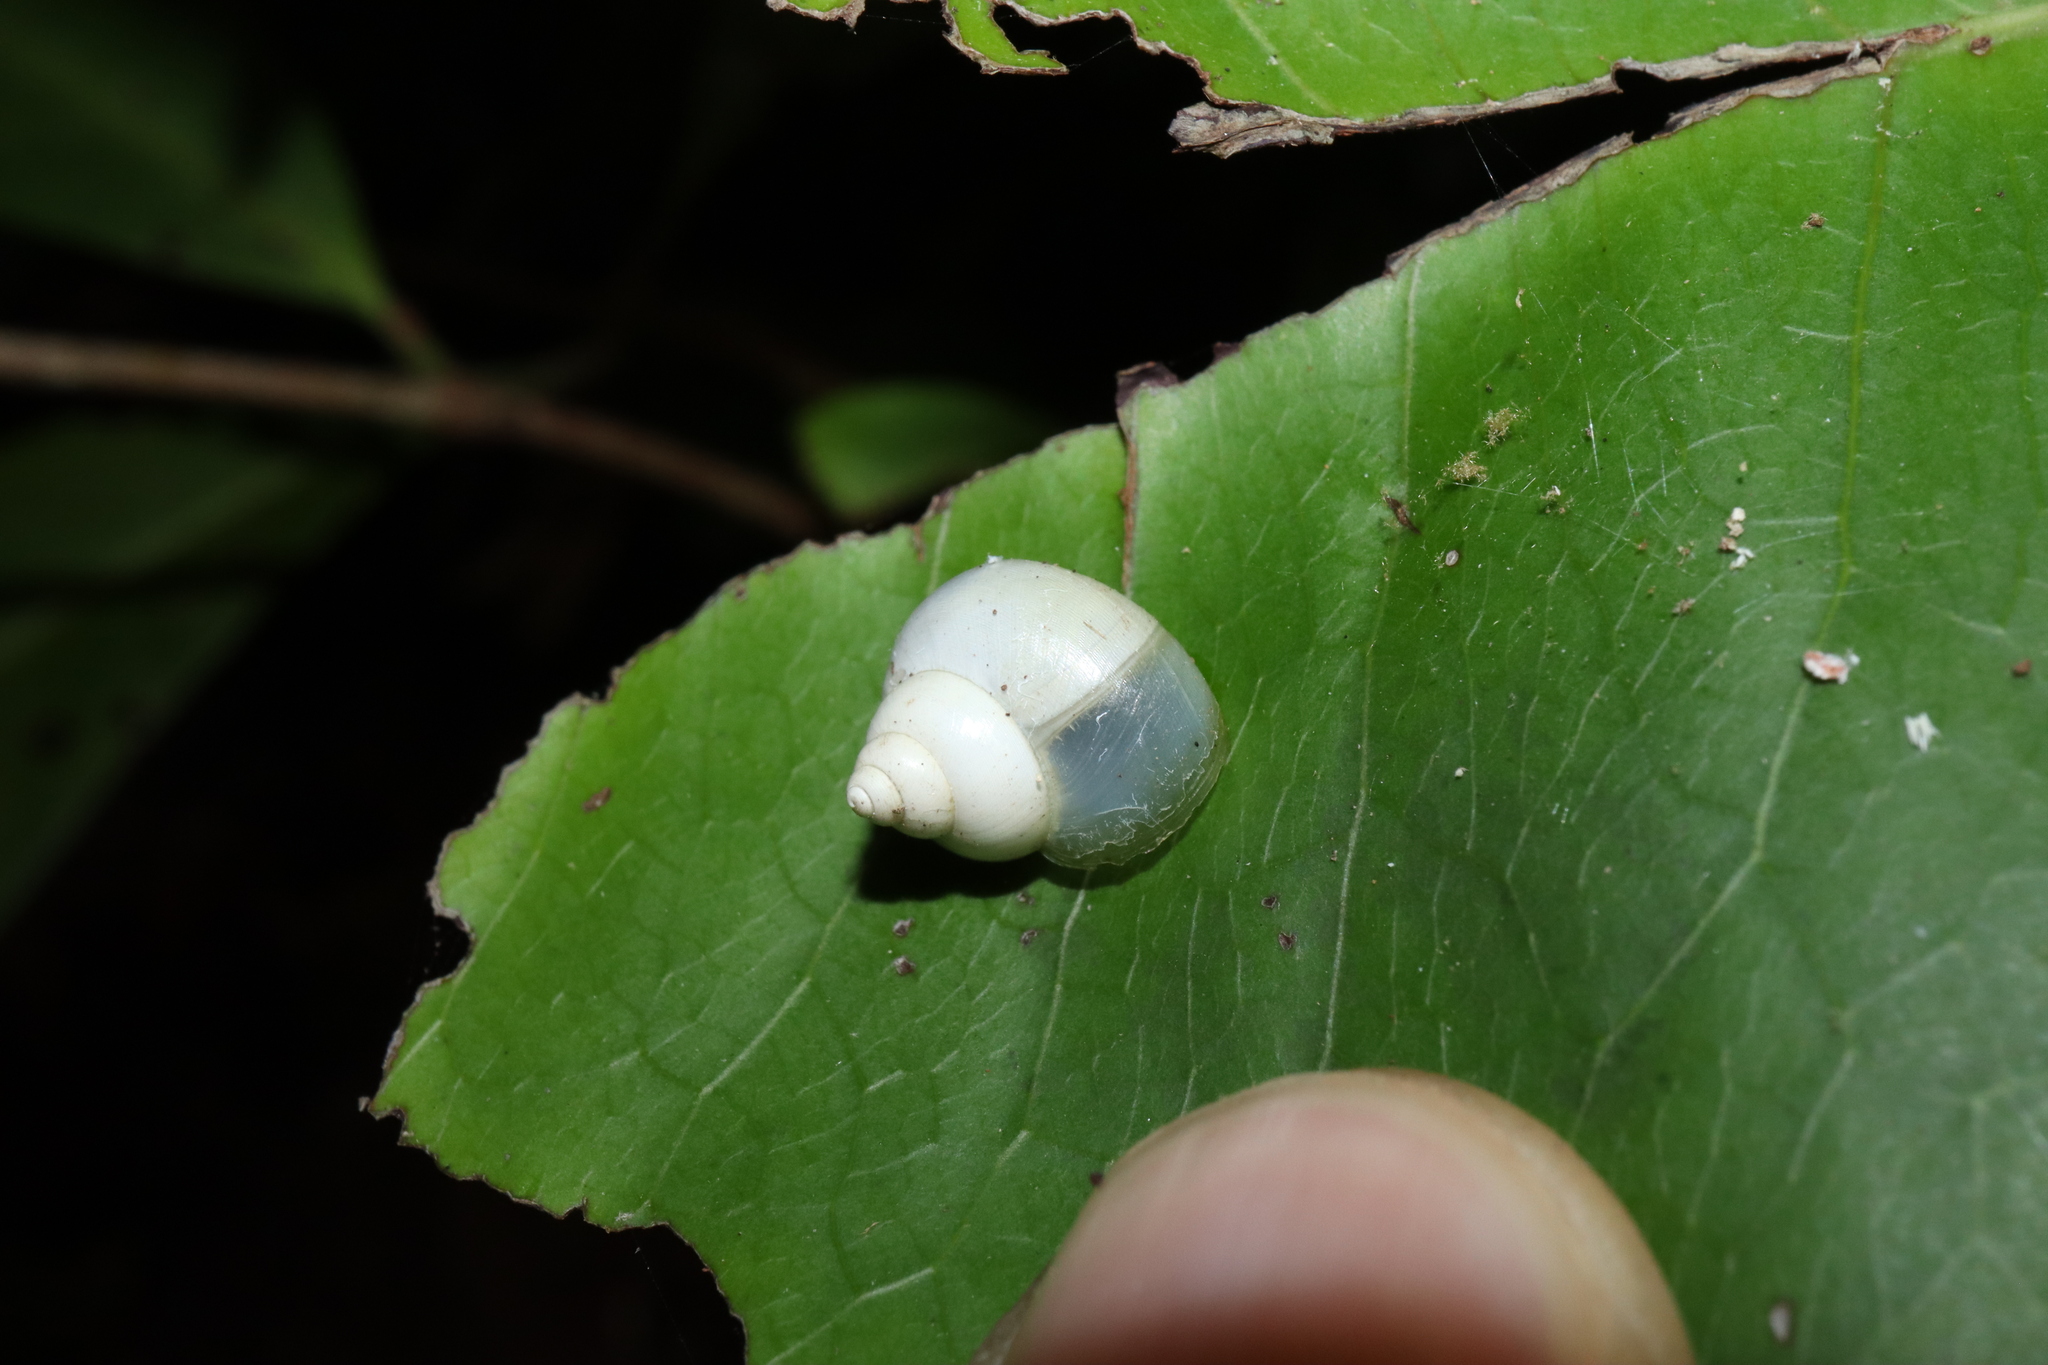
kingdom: Animalia
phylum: Mollusca
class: Gastropoda
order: Architaenioglossa
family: Cyclophoridae
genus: Leptopoma
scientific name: Leptopoma perlucidum
